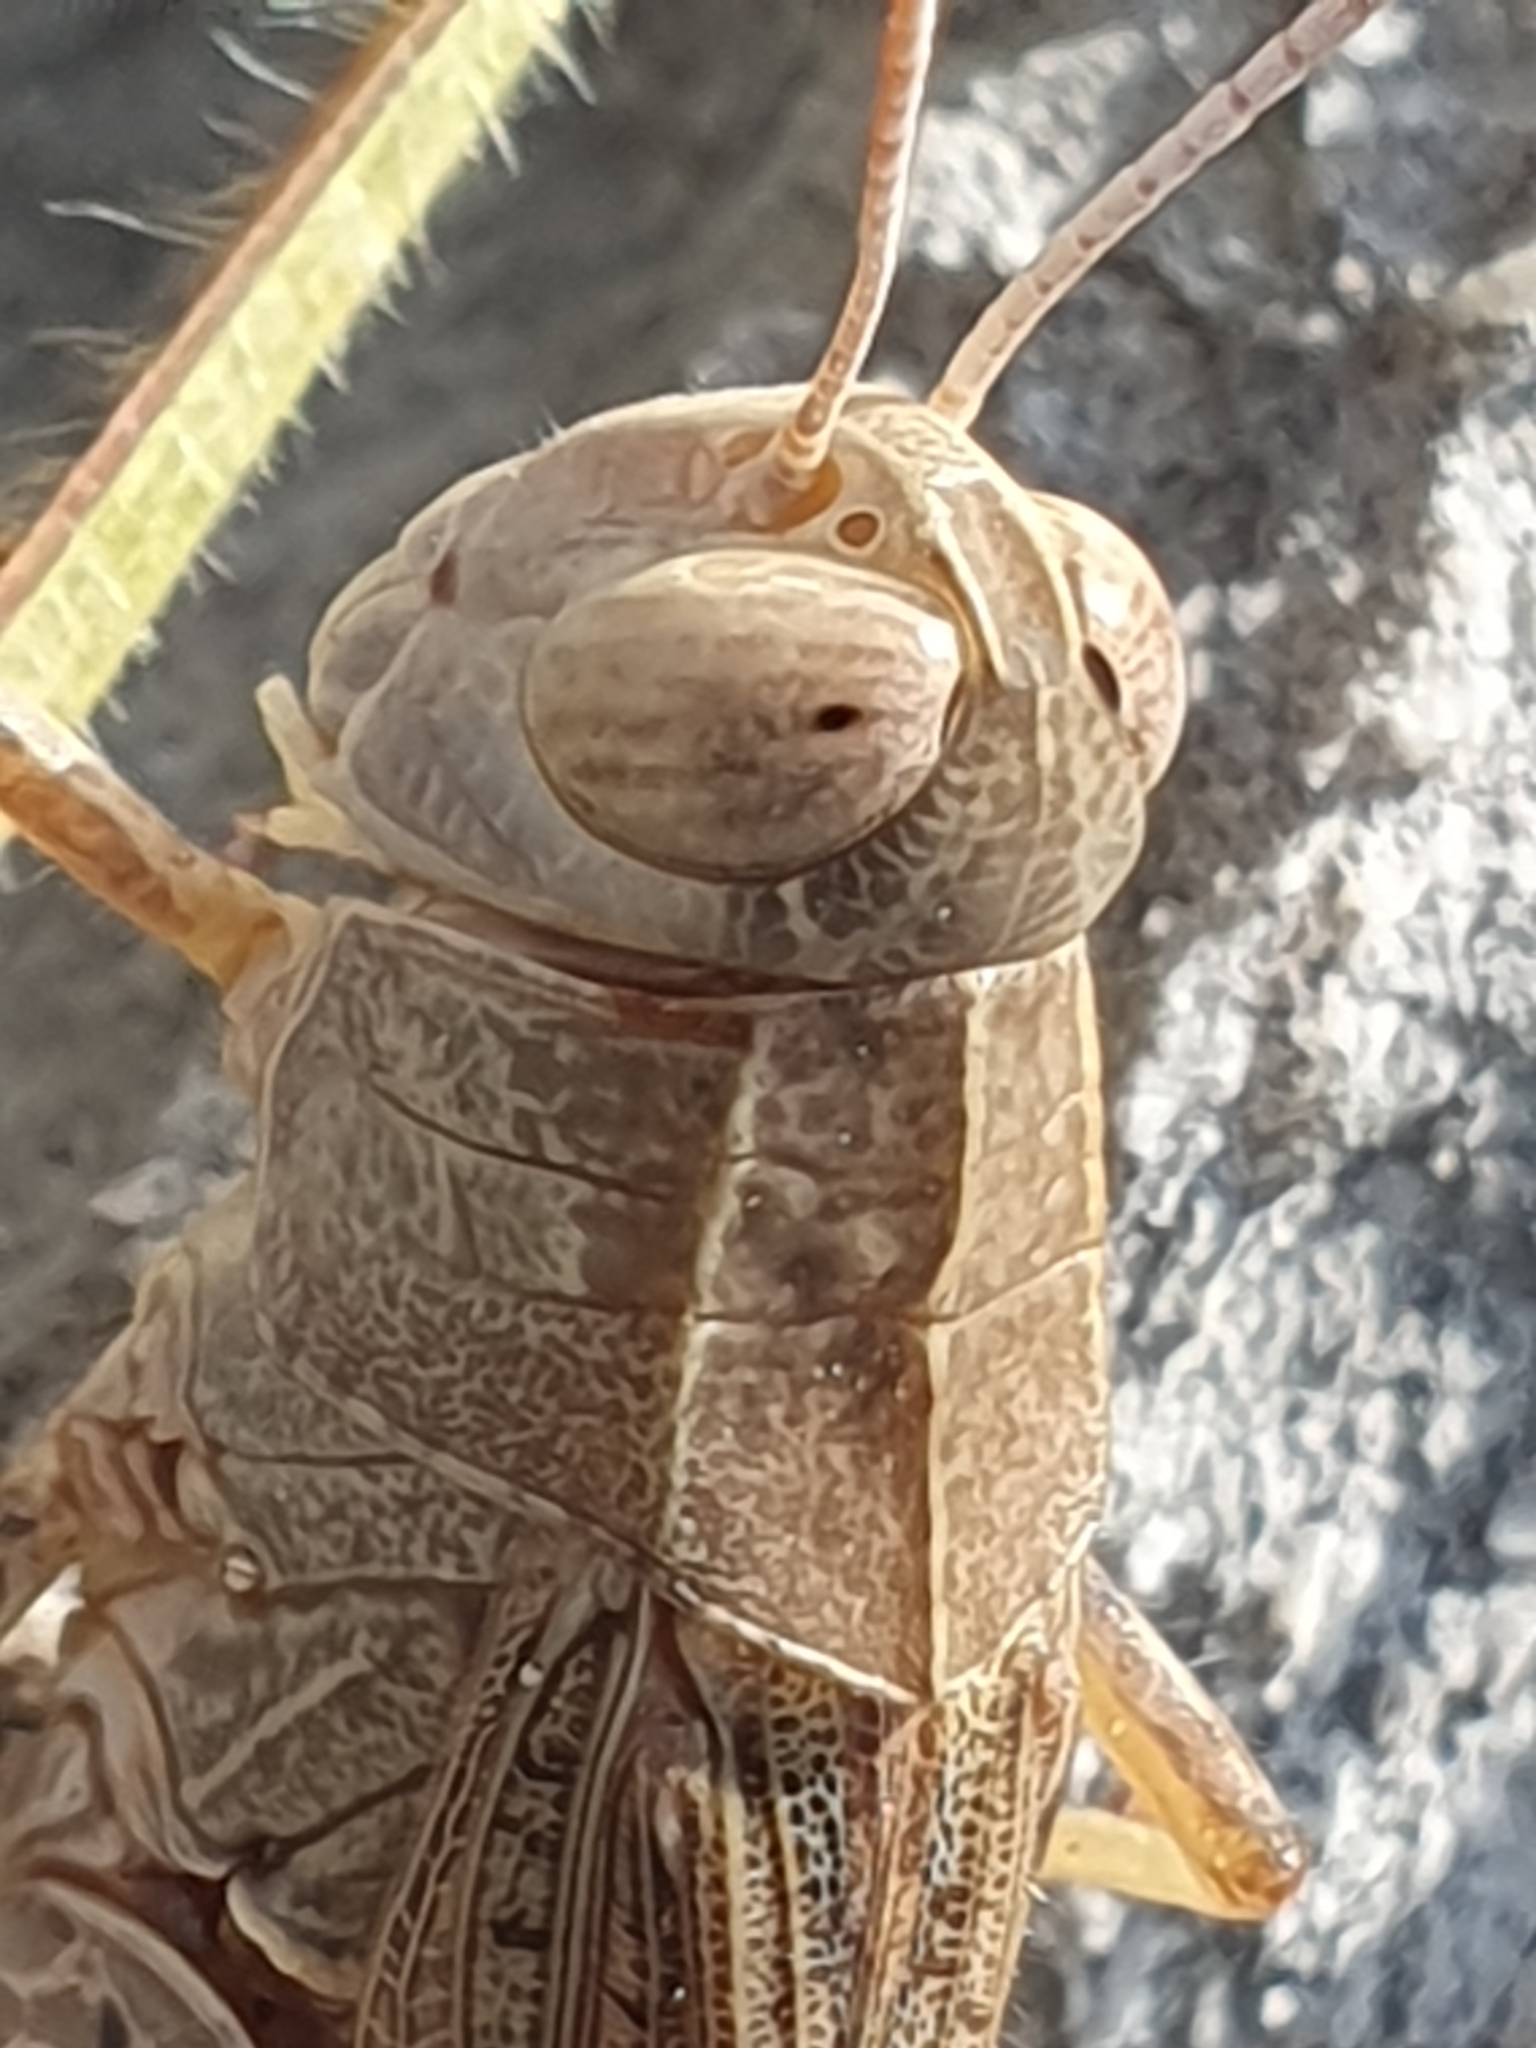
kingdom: Animalia
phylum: Arthropoda
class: Insecta
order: Orthoptera
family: Acrididae
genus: Calliptamus
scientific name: Calliptamus italicus
